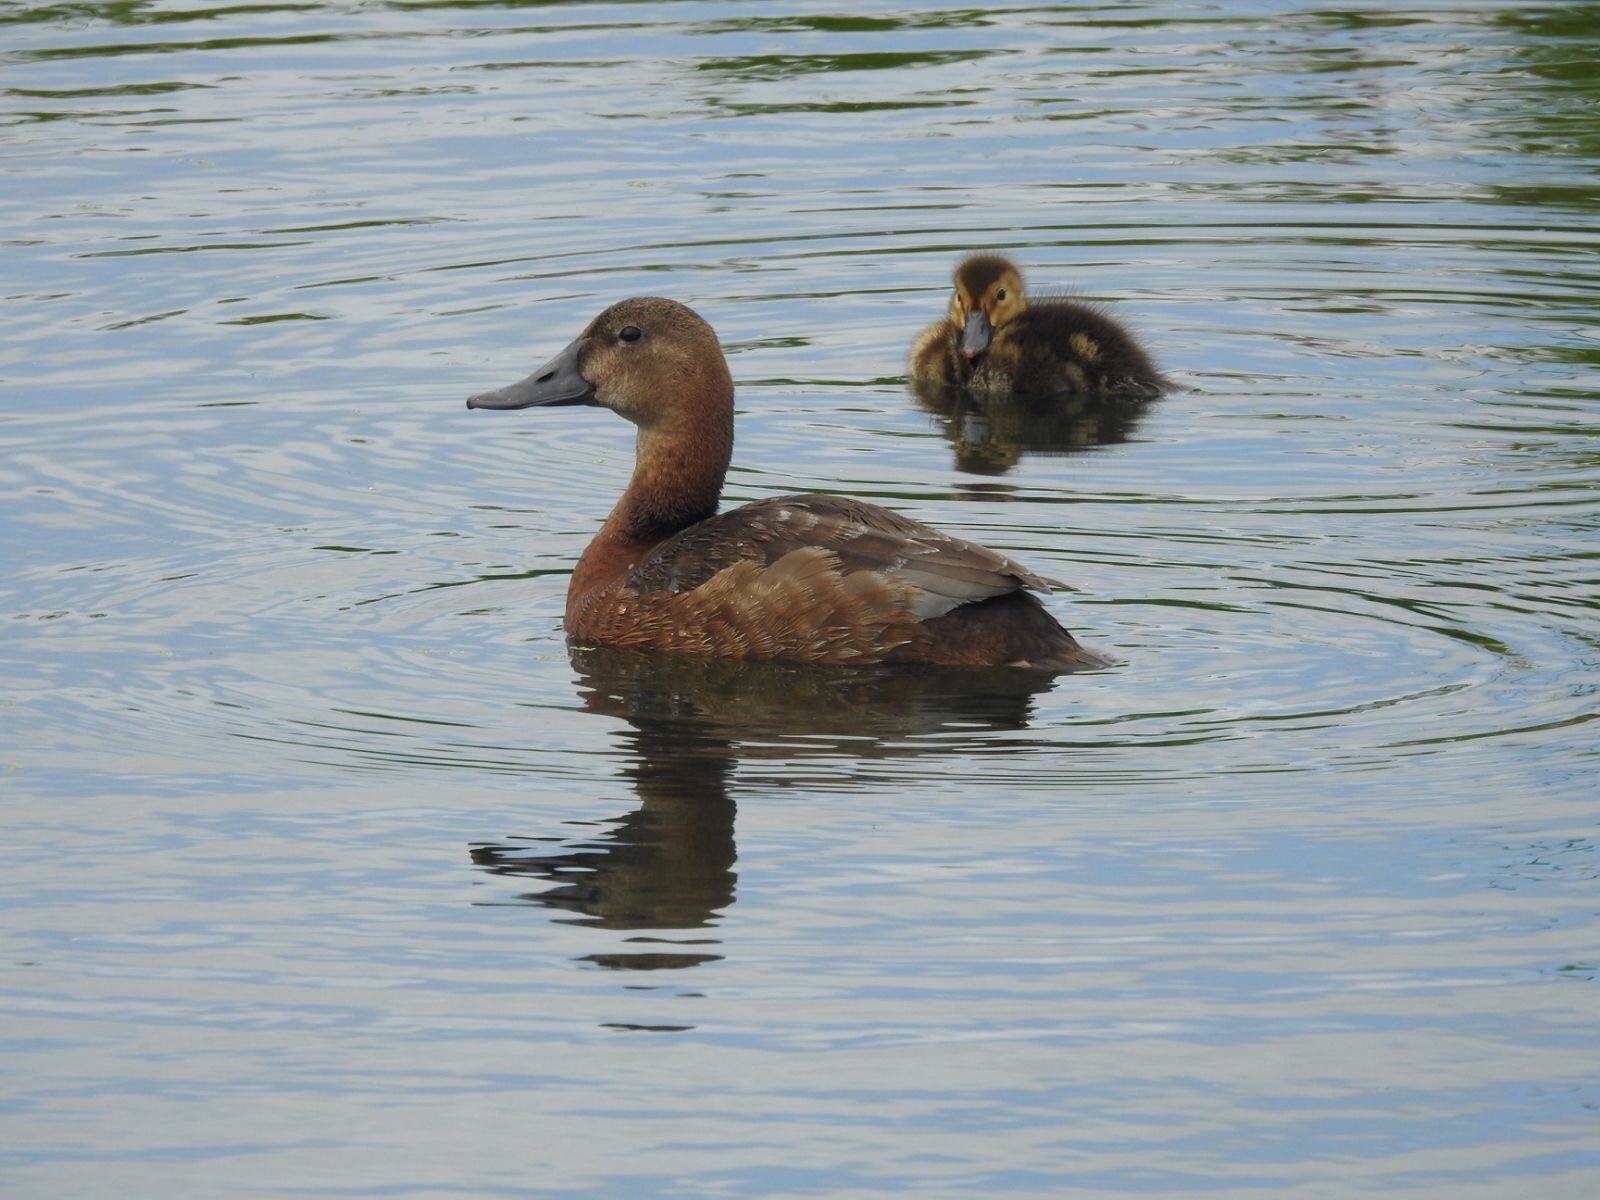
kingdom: Animalia
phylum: Chordata
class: Aves
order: Anseriformes
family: Anatidae
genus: Aythya
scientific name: Aythya ferina
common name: Common pochard
